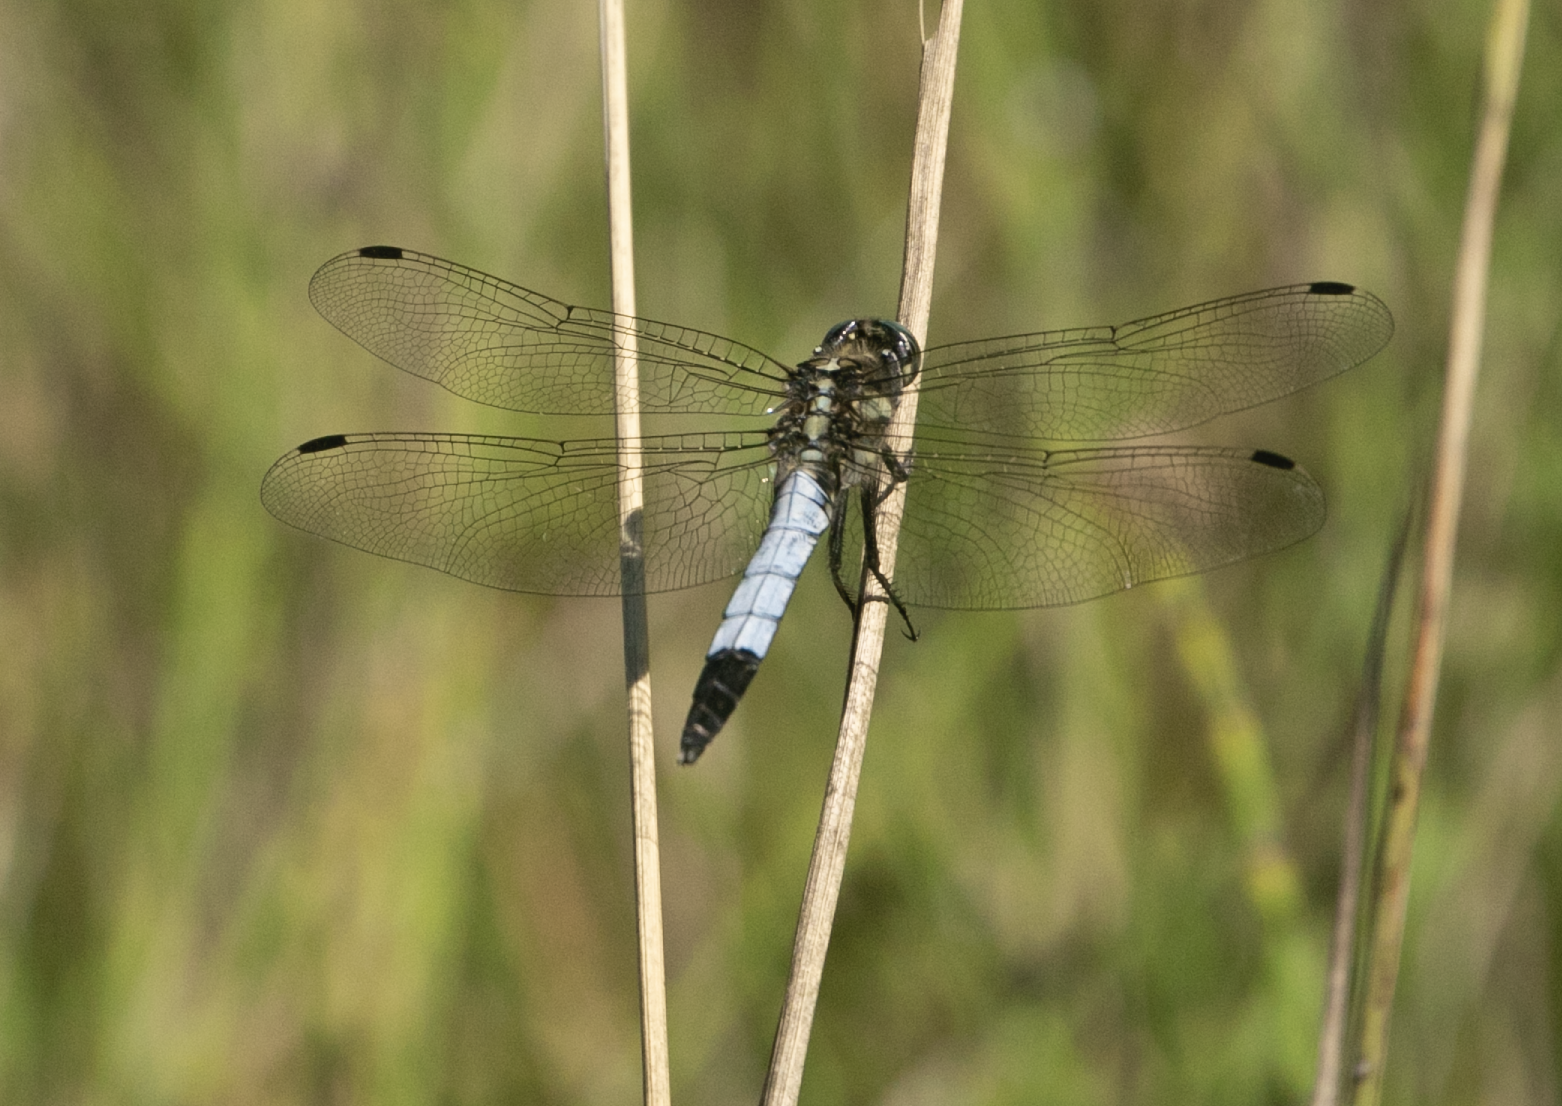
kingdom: Animalia
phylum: Arthropoda
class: Insecta
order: Odonata
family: Libellulidae
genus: Orthetrum
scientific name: Orthetrum albistylum
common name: White-tailed skimmer
